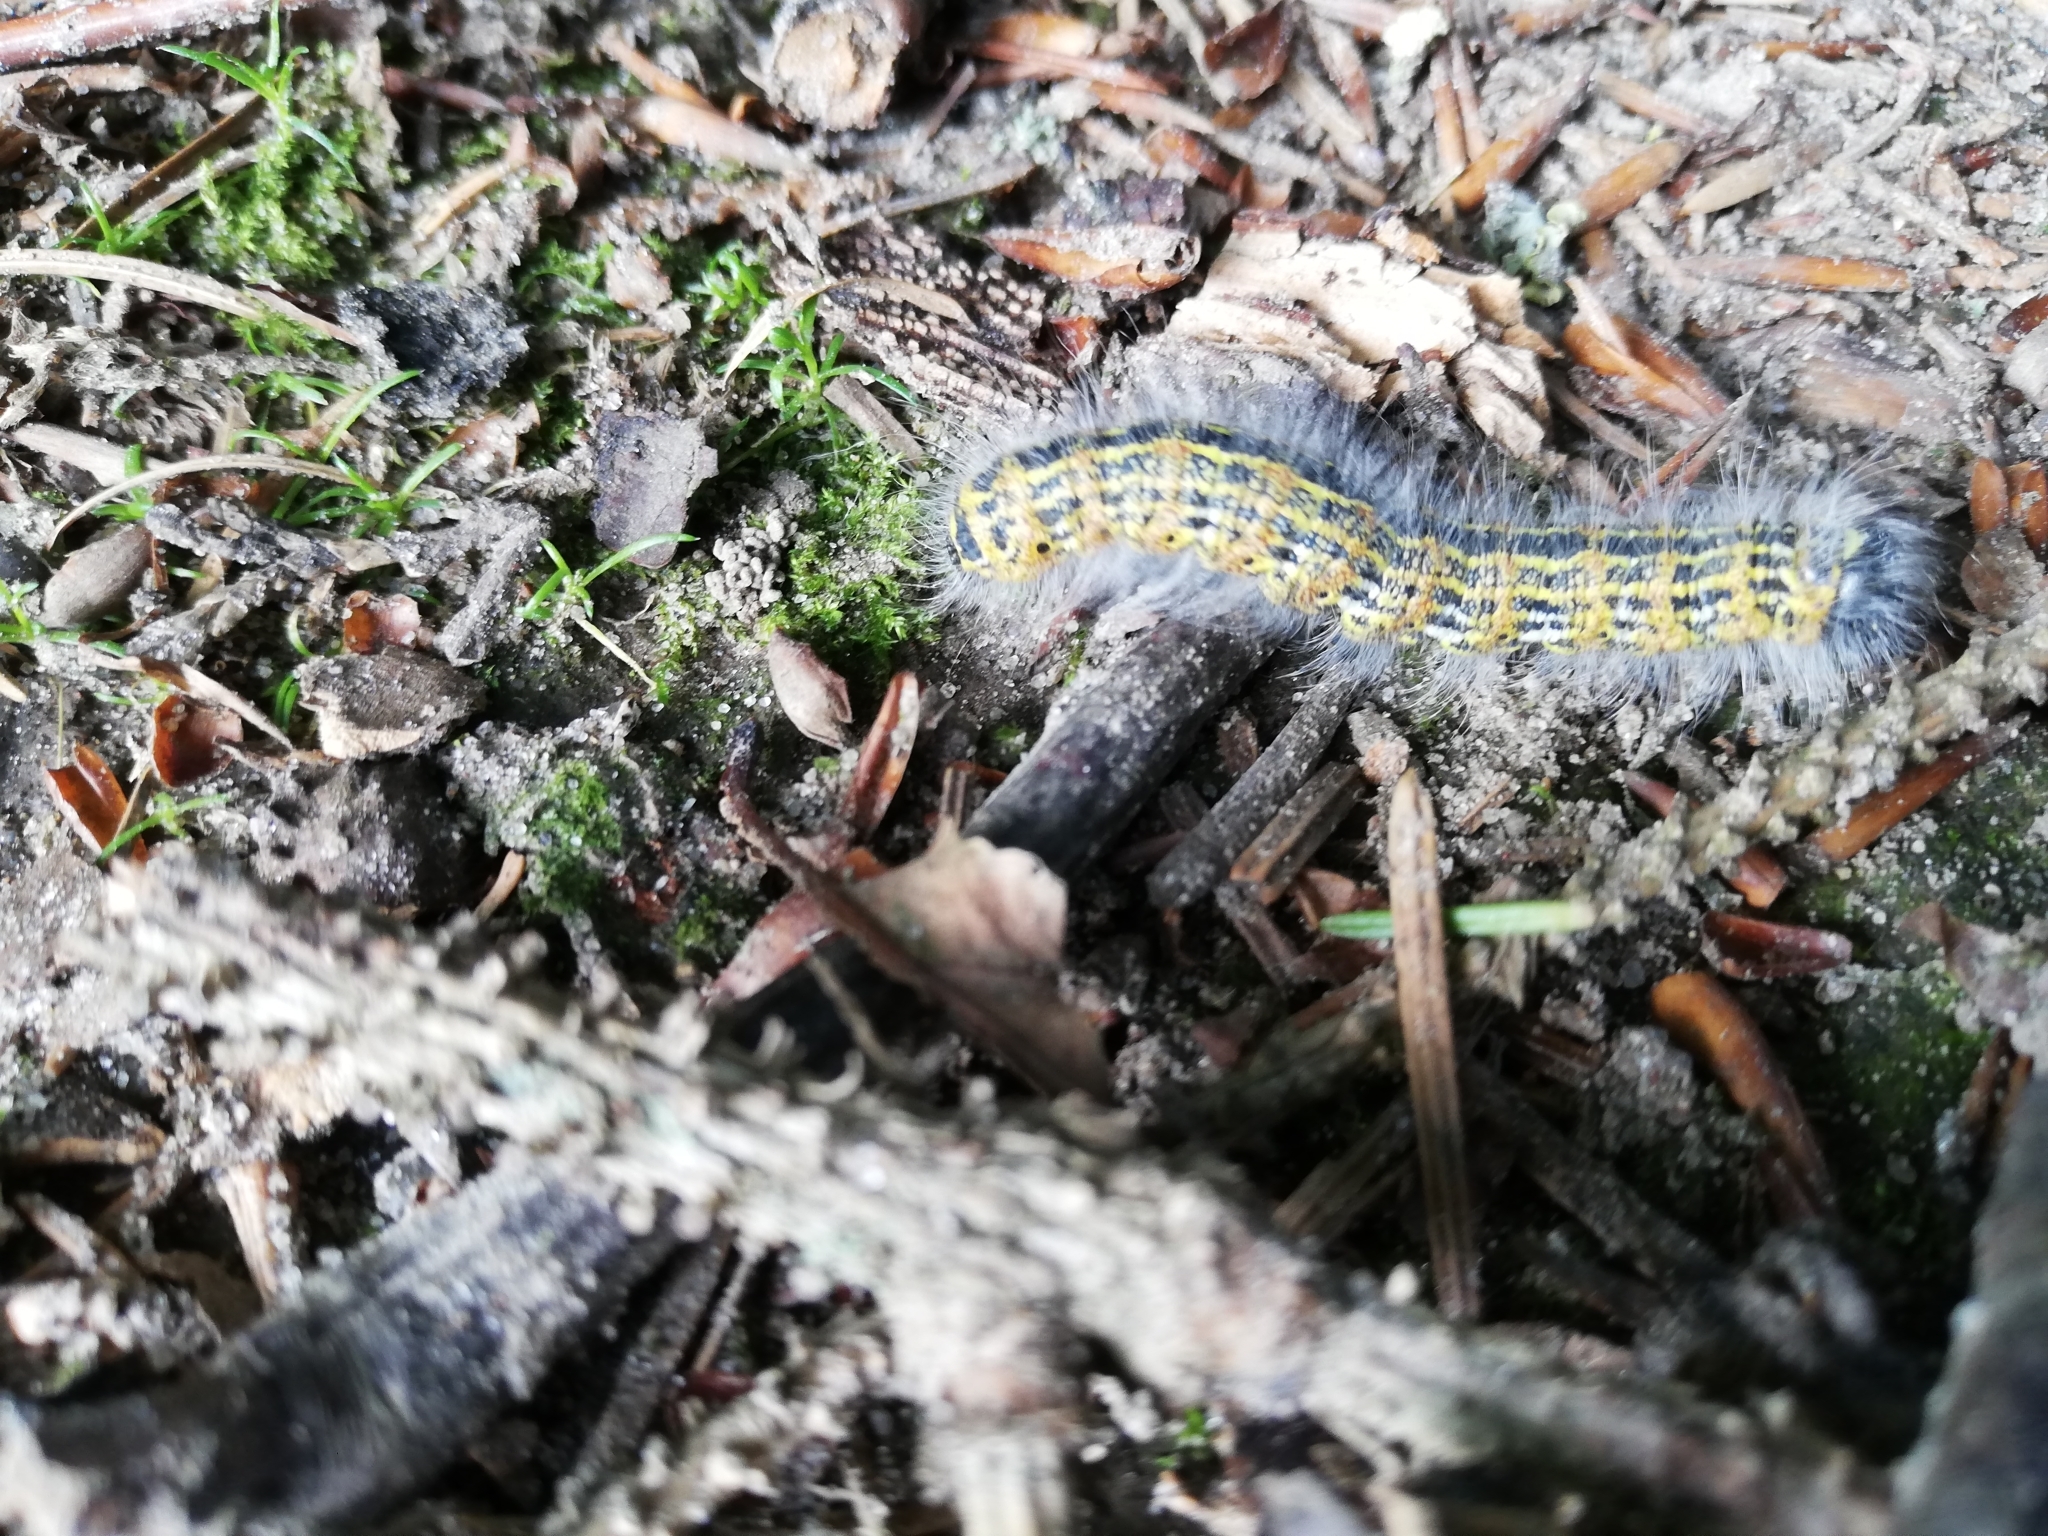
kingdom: Animalia
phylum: Arthropoda
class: Insecta
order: Lepidoptera
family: Notodontidae
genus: Phalera
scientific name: Phalera bucephala
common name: Buff-tip
